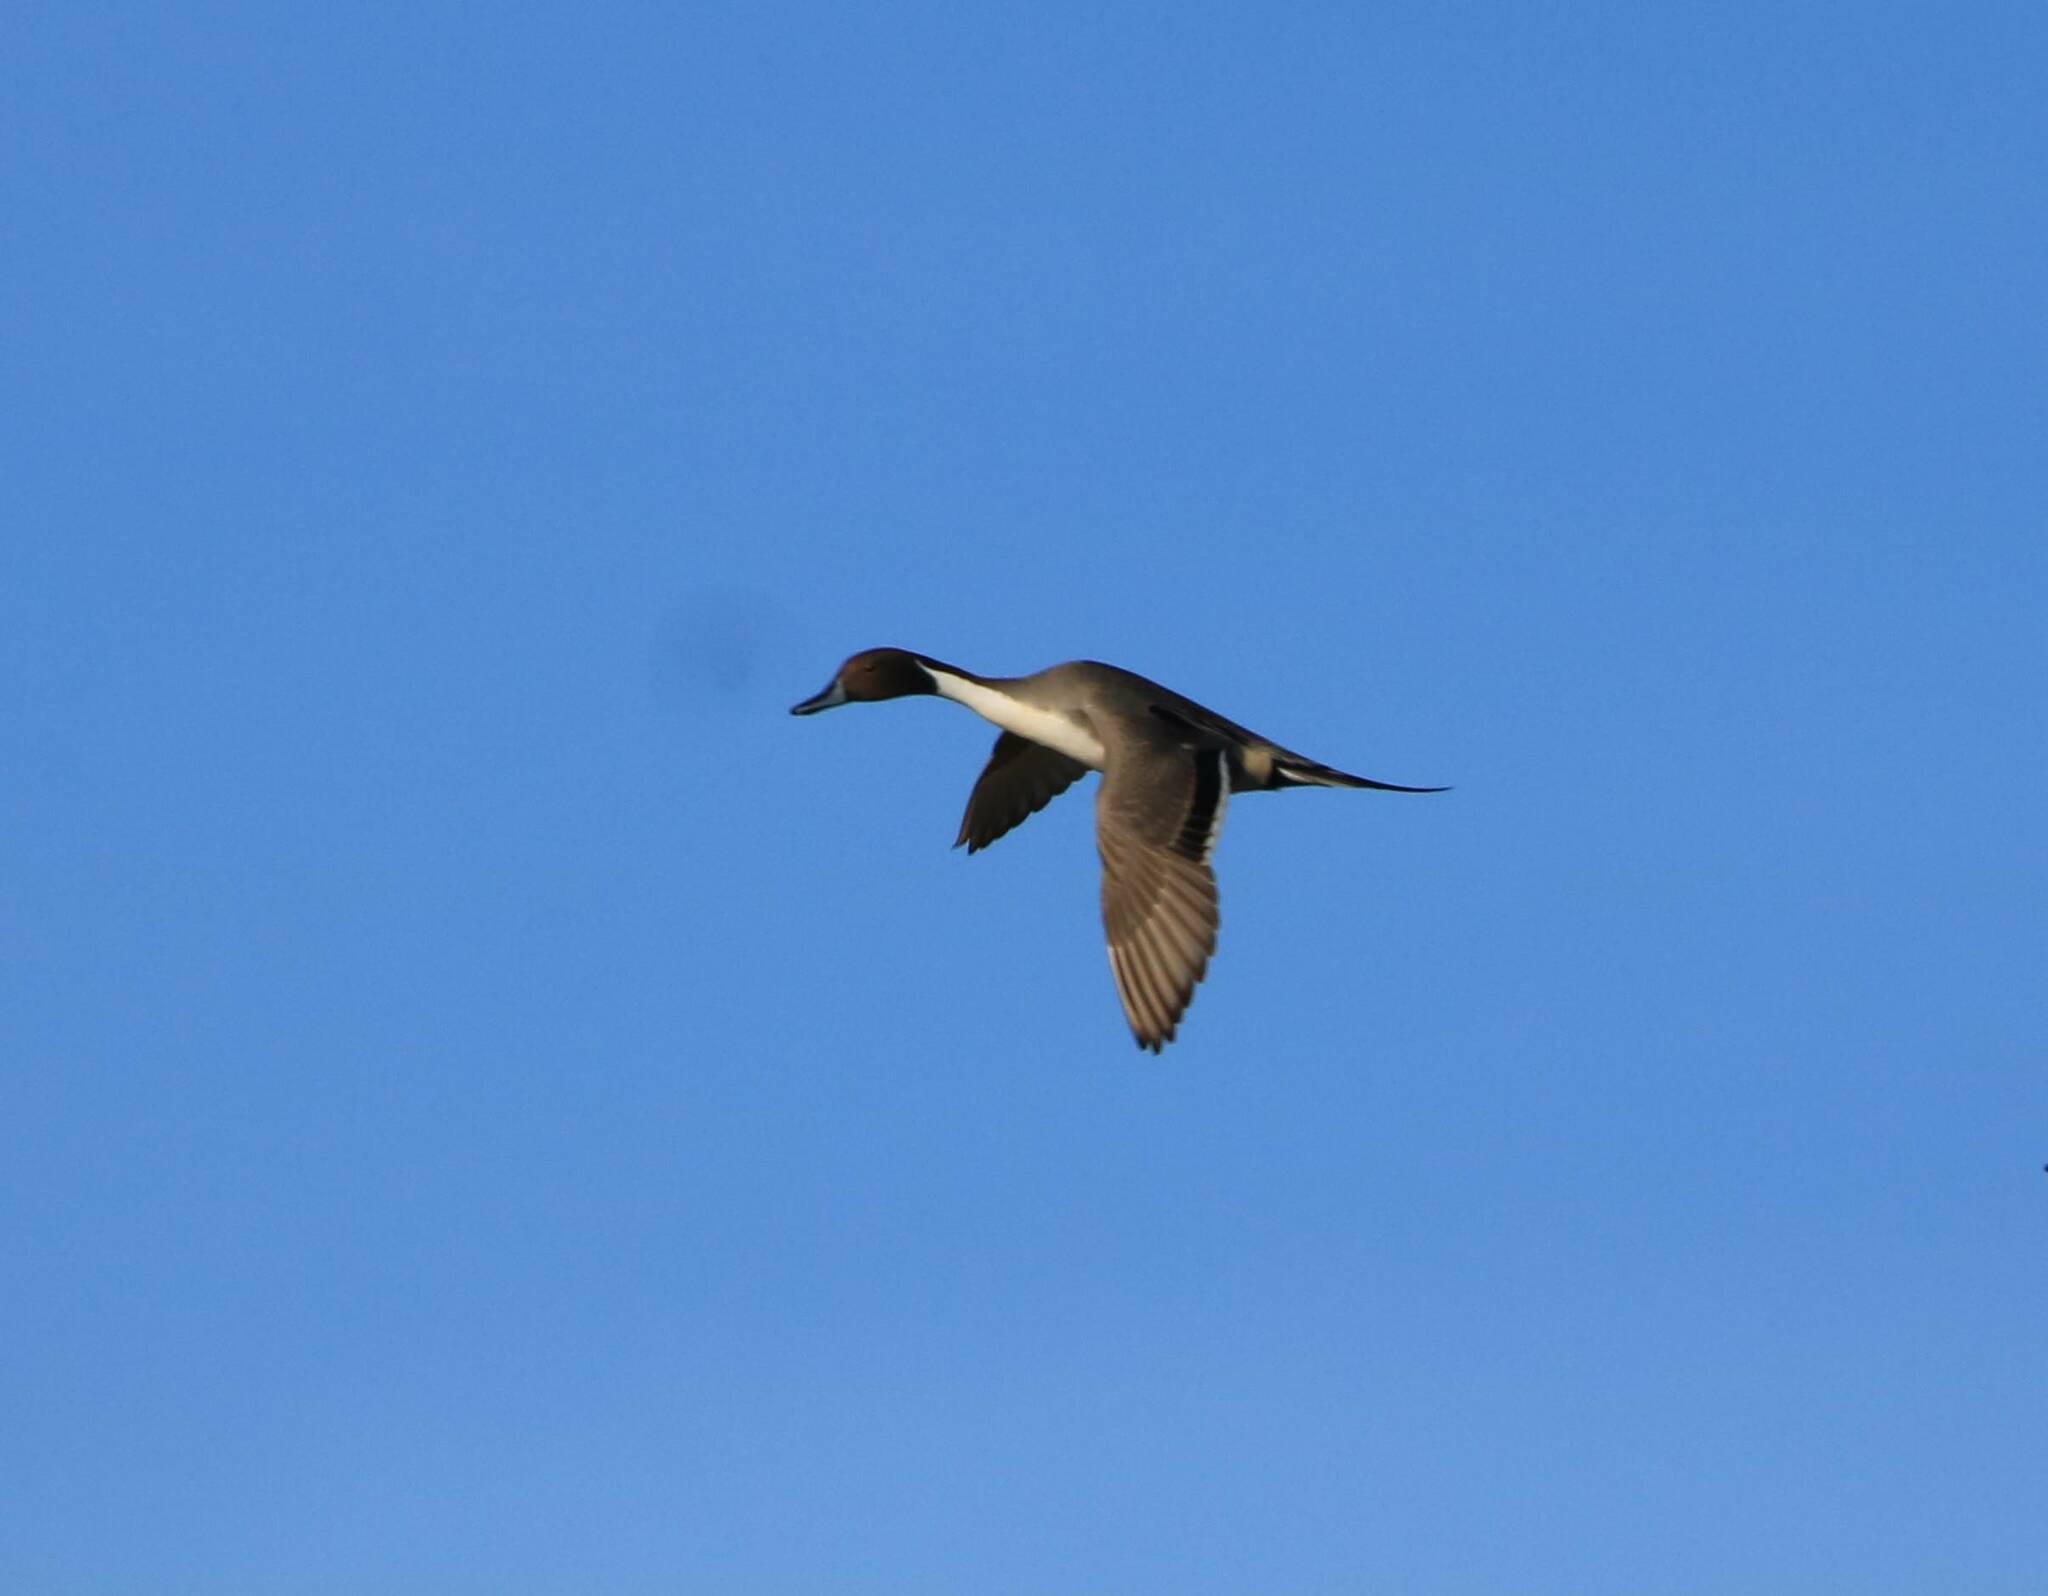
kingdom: Animalia
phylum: Chordata
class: Aves
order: Anseriformes
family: Anatidae
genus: Anas
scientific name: Anas acuta
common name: Northern pintail
